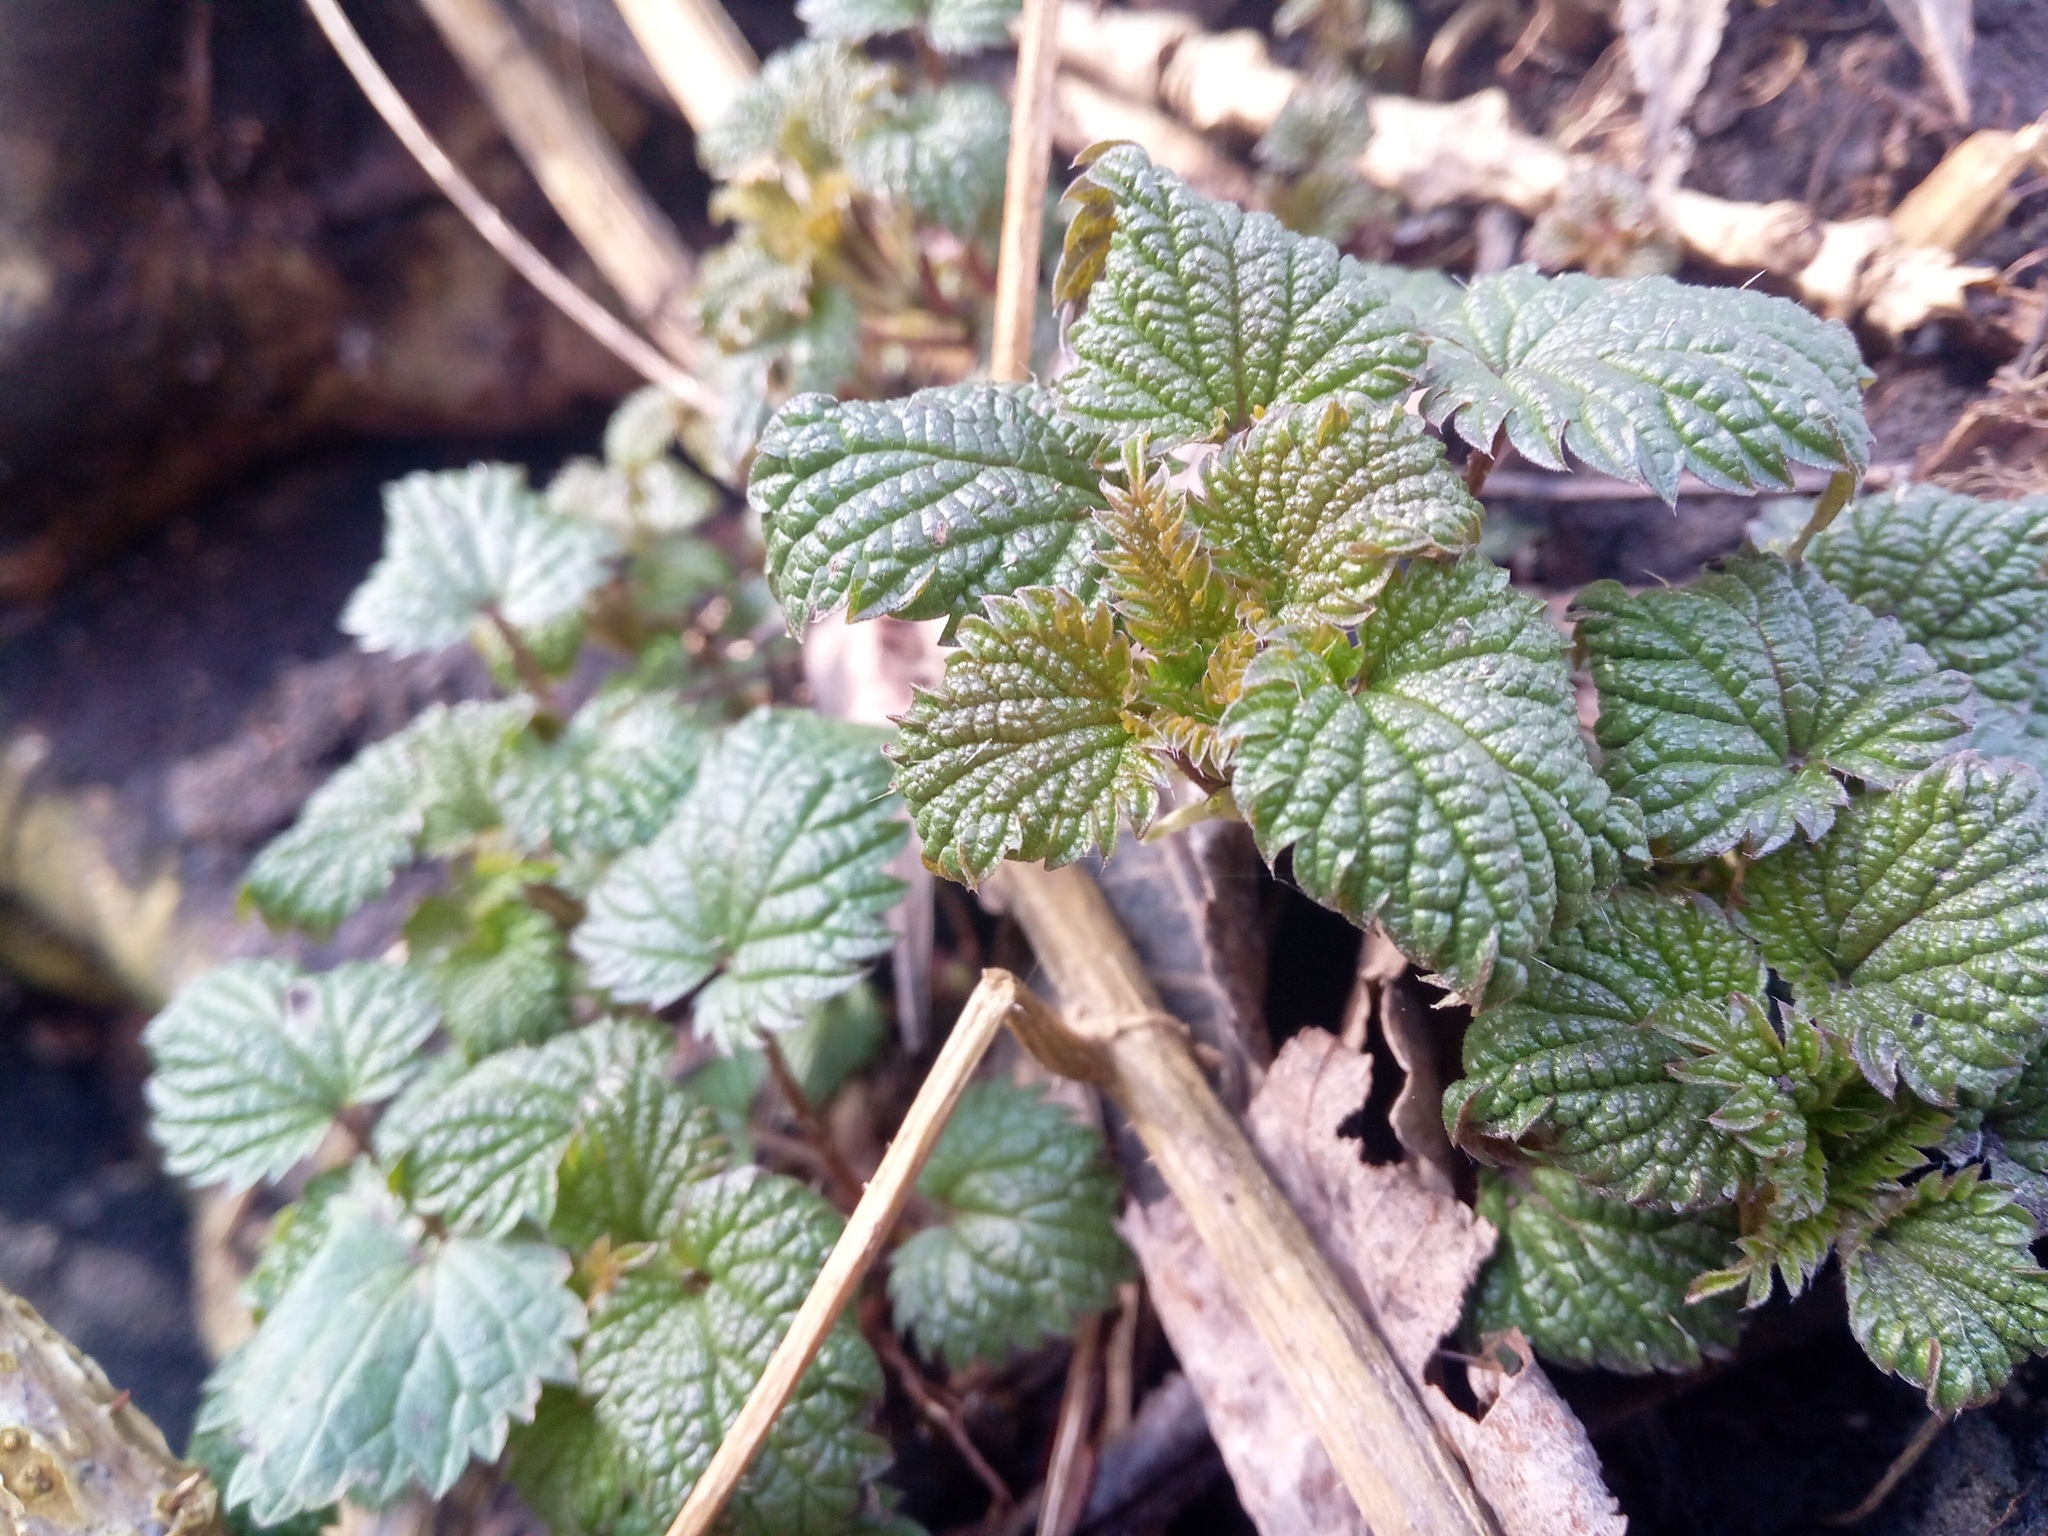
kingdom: Plantae
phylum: Tracheophyta
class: Magnoliopsida
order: Rosales
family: Urticaceae
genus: Urtica
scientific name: Urtica dioica
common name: Common nettle
